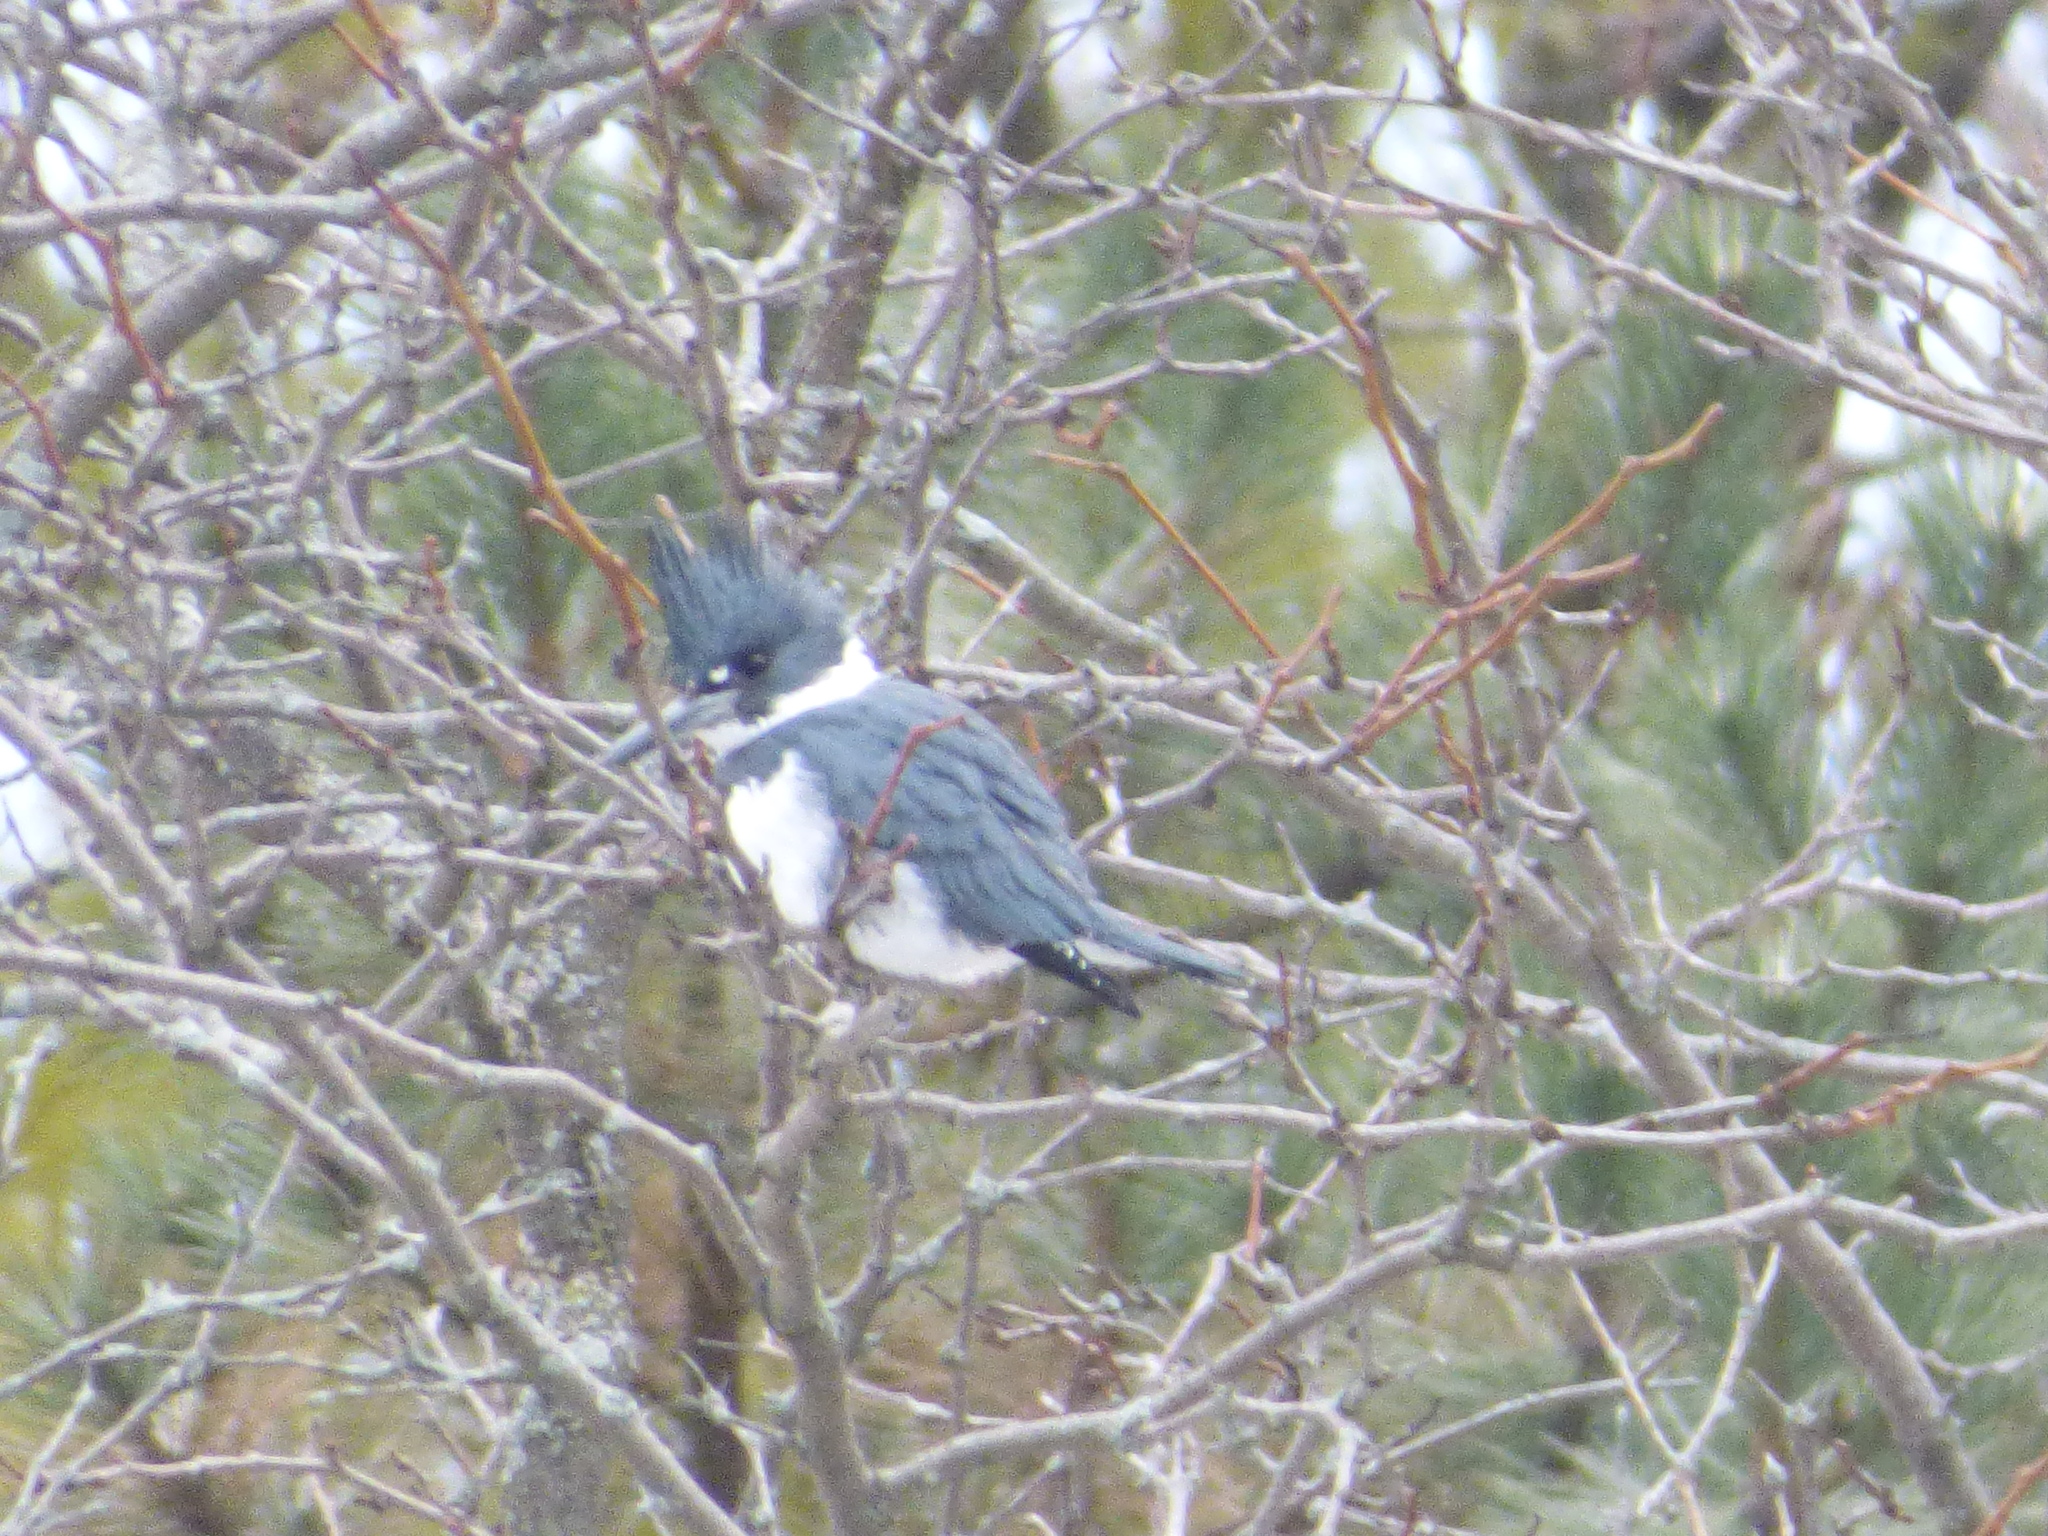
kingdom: Animalia
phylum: Chordata
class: Aves
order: Coraciiformes
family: Alcedinidae
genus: Megaceryle
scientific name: Megaceryle alcyon
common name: Belted kingfisher
